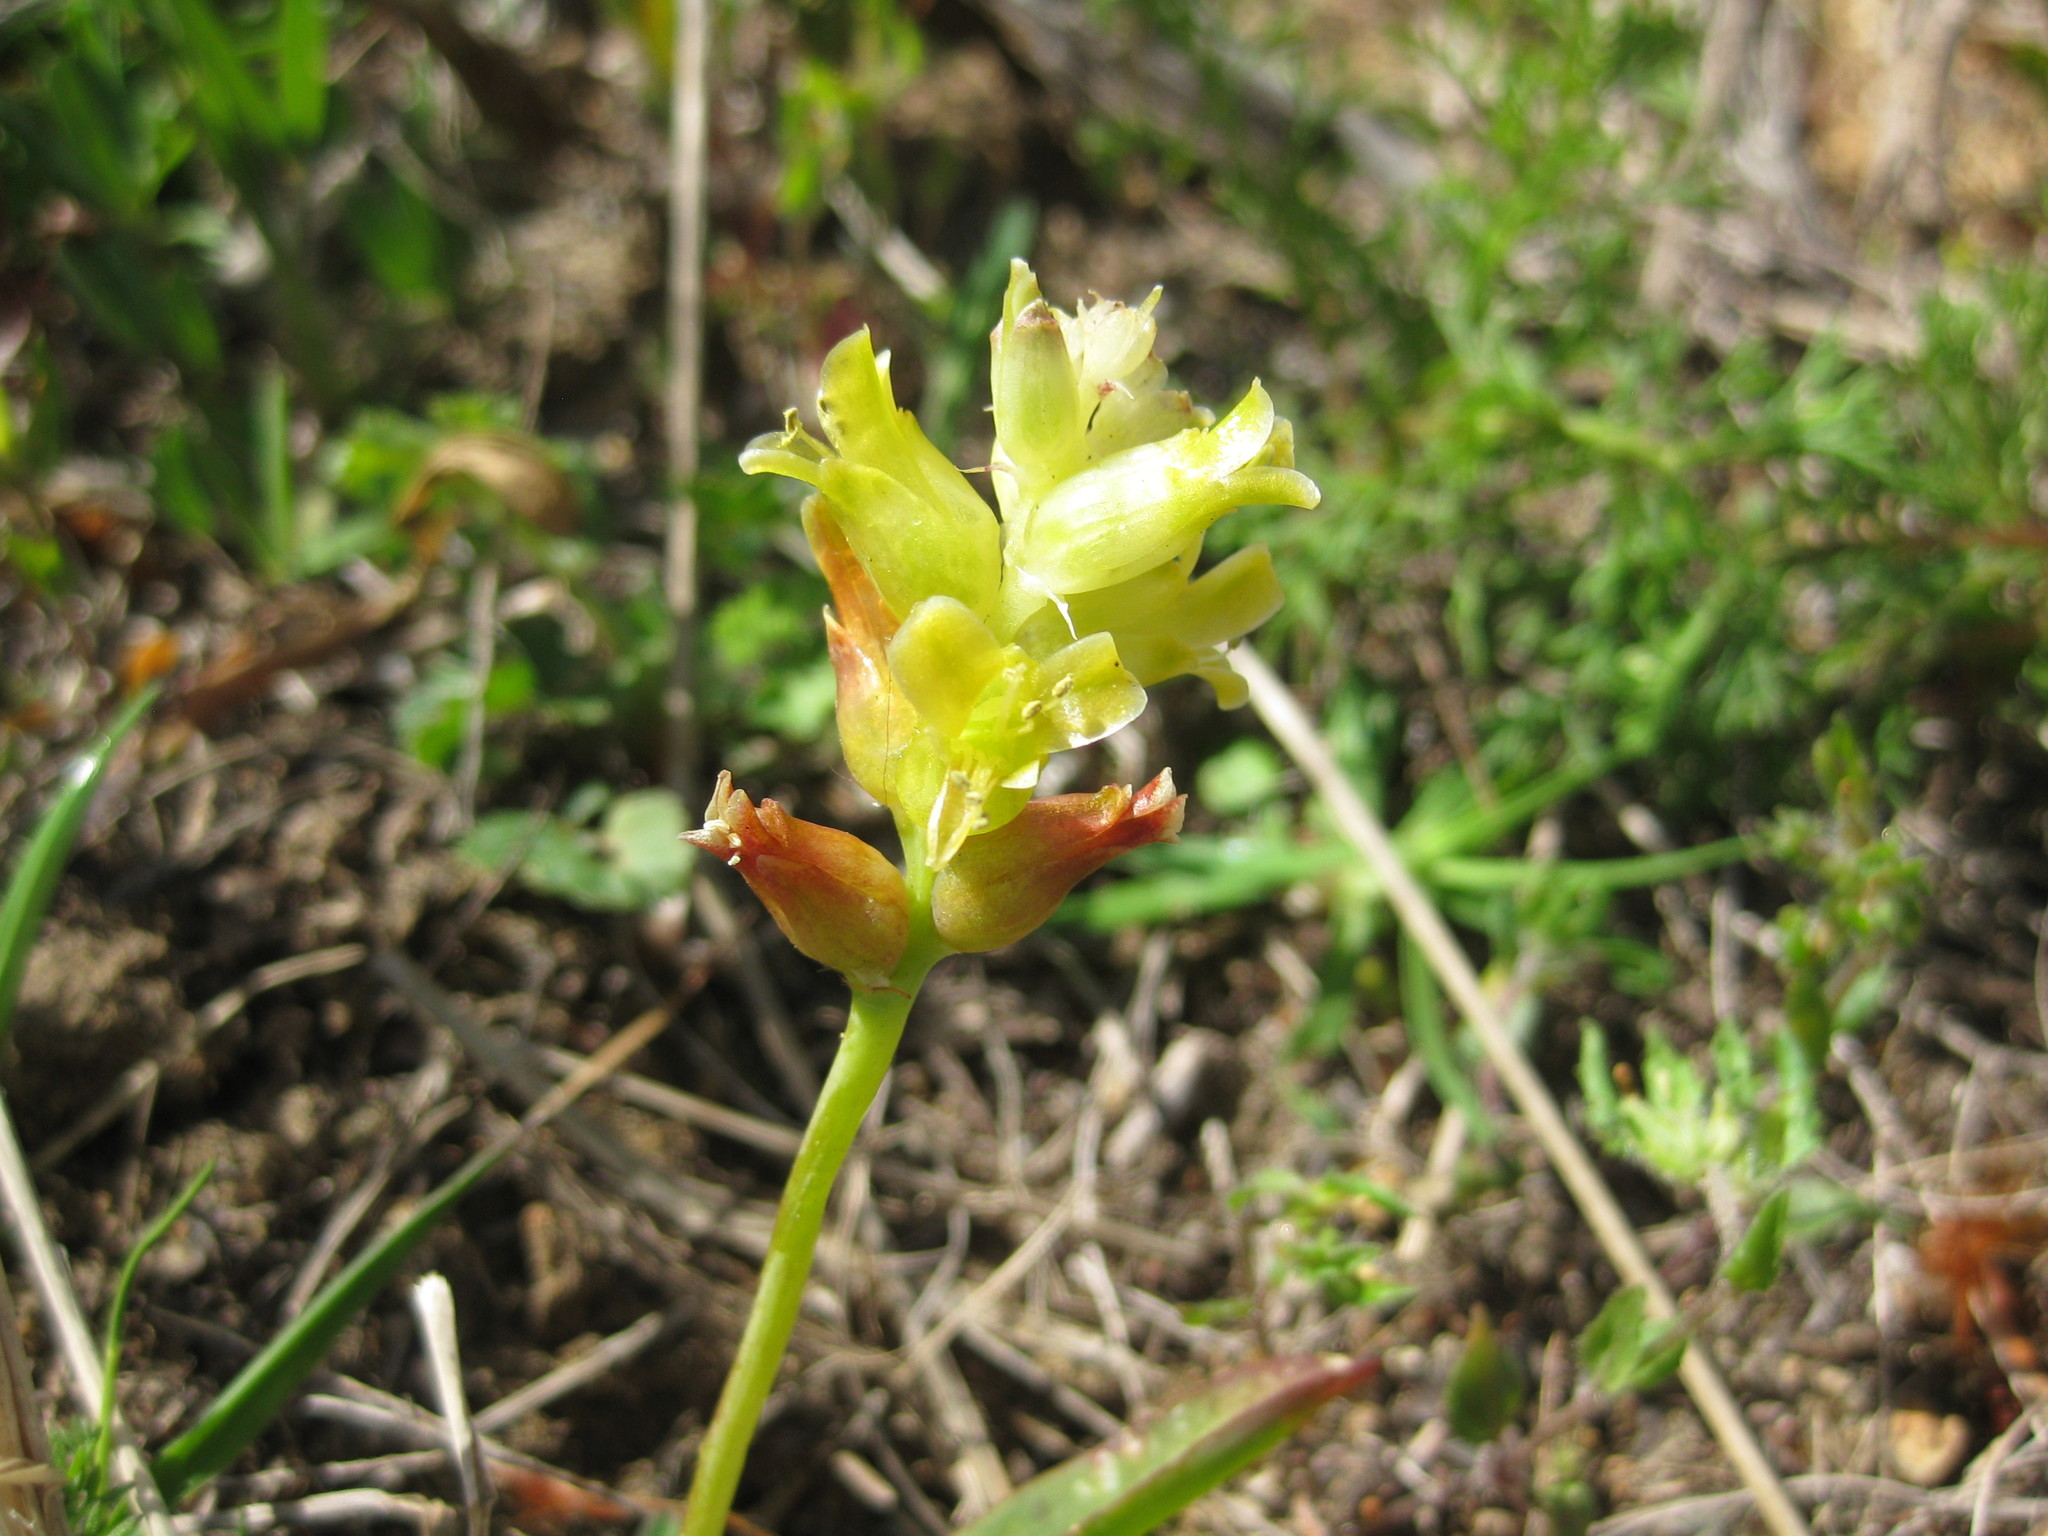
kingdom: Plantae
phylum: Tracheophyta
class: Liliopsida
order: Asparagales
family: Asparagaceae
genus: Lachenalia
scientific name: Lachenalia lutea
